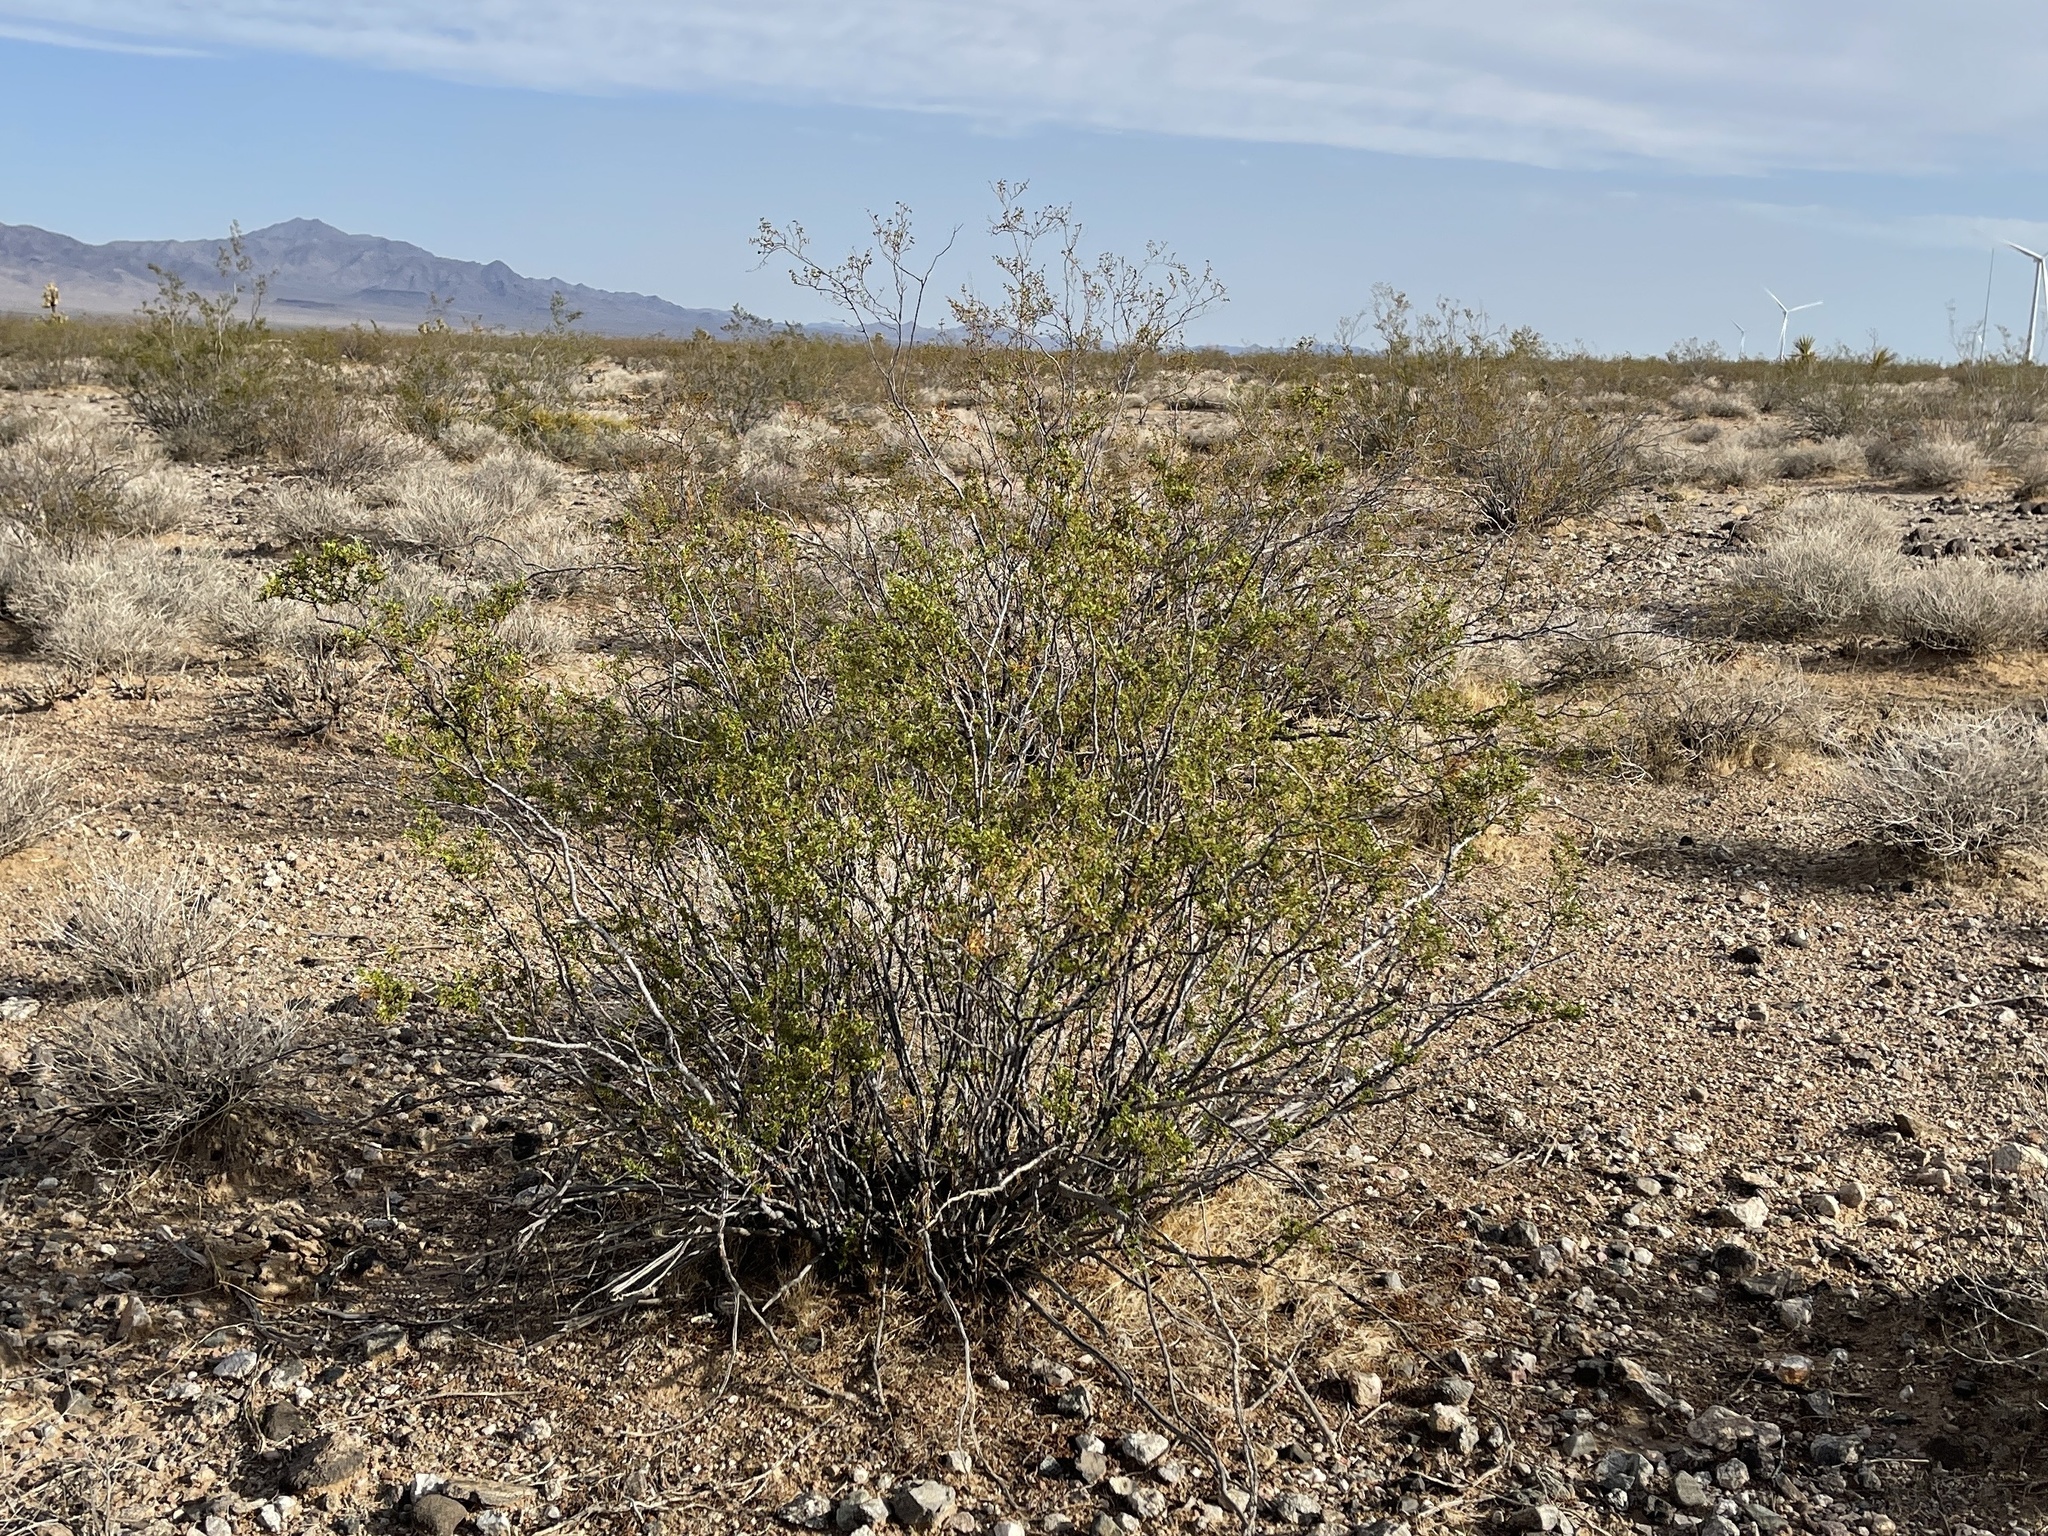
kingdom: Plantae
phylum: Tracheophyta
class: Magnoliopsida
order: Zygophyllales
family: Zygophyllaceae
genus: Larrea
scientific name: Larrea tridentata
